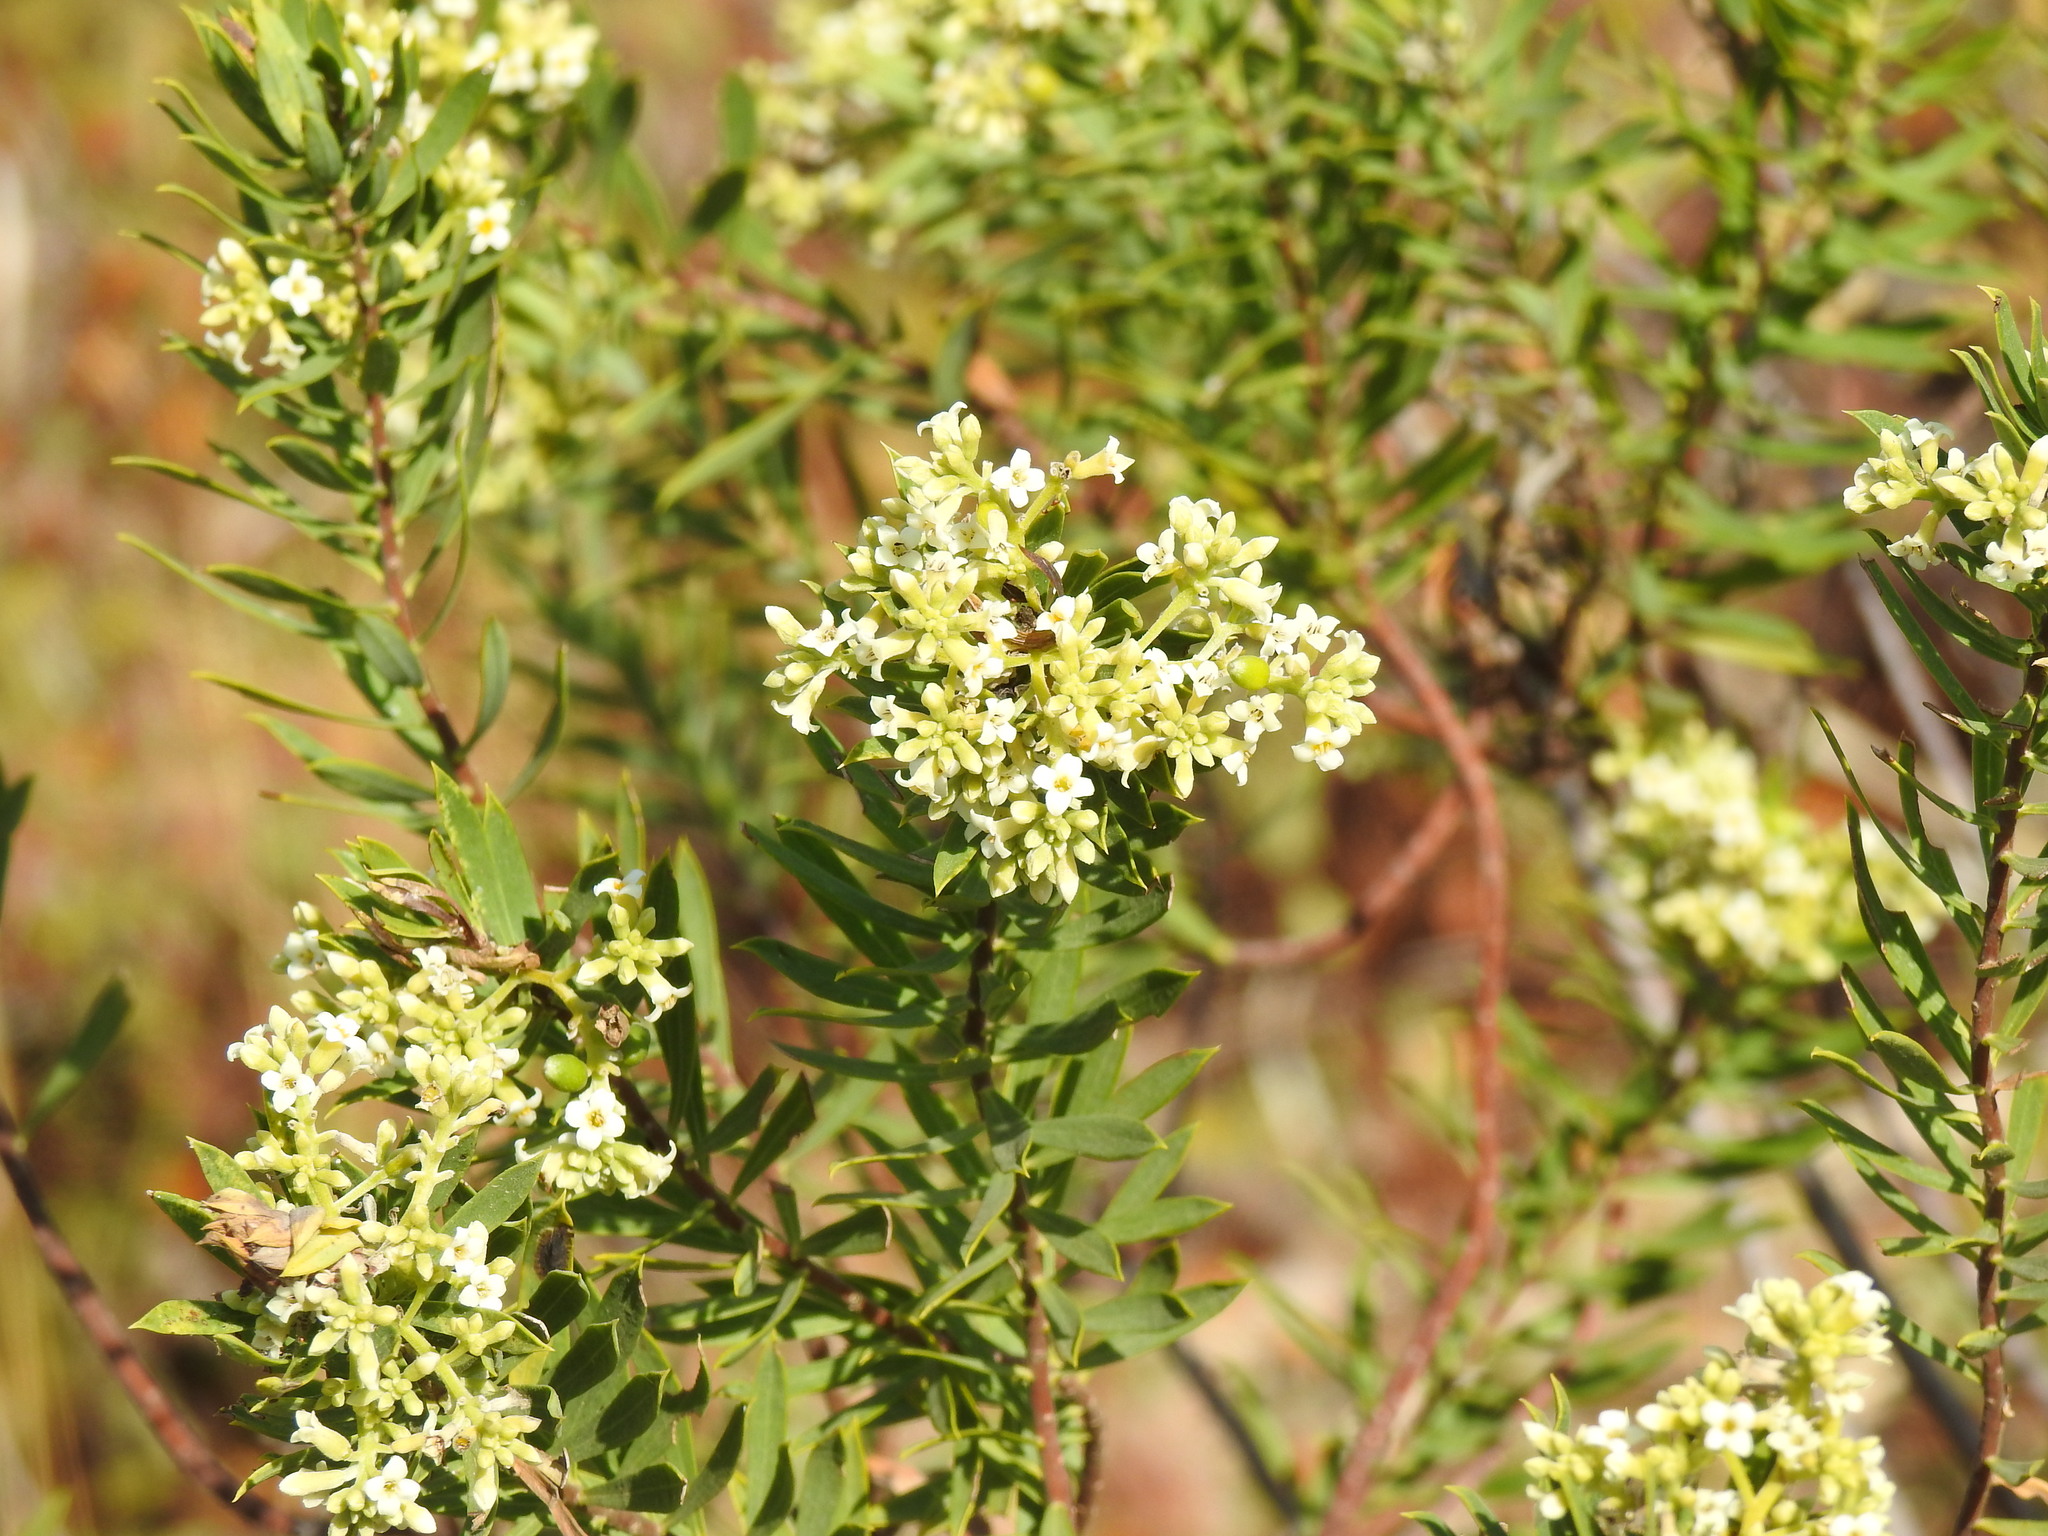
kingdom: Plantae
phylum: Tracheophyta
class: Magnoliopsida
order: Malvales
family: Thymelaeaceae
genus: Daphne
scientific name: Daphne gnidium
